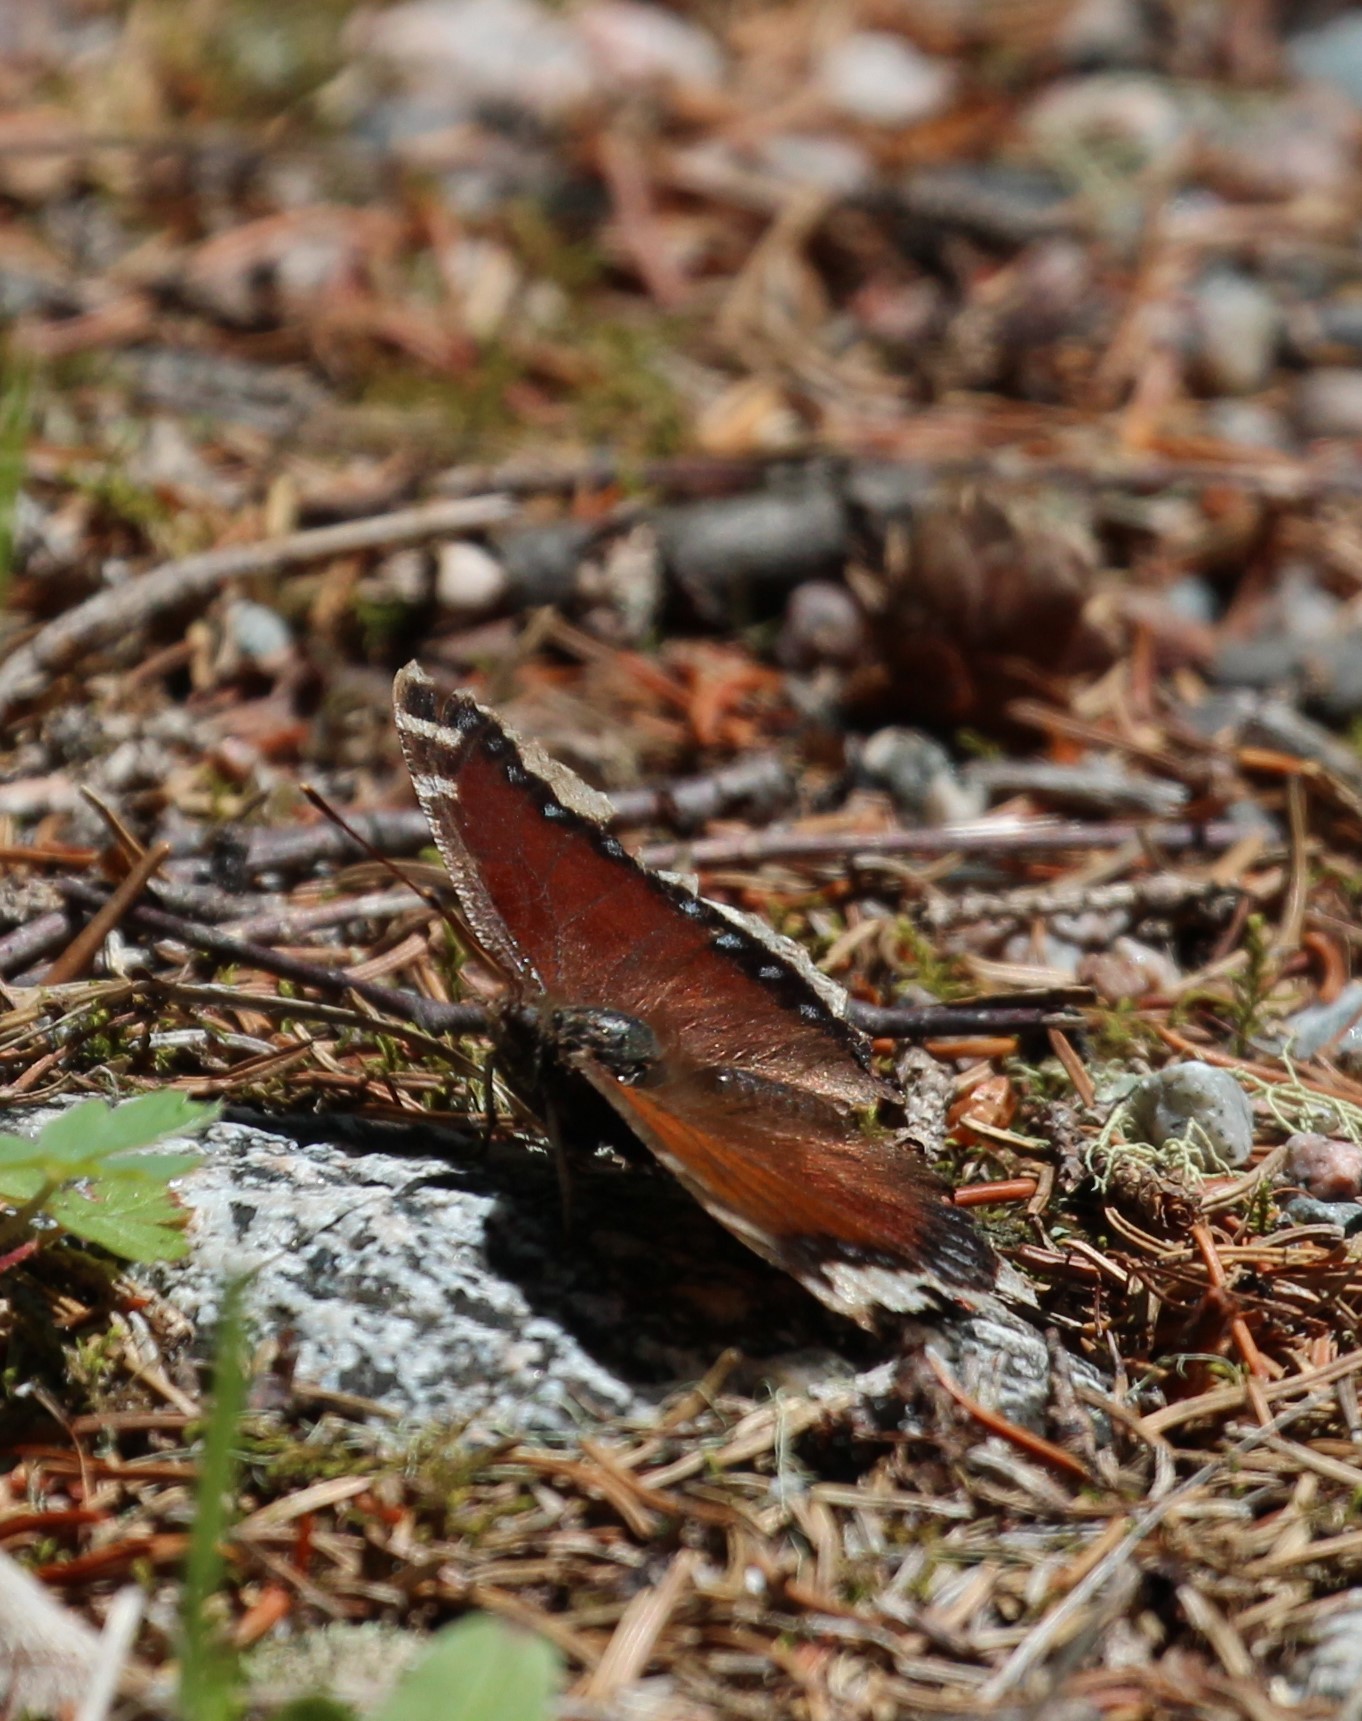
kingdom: Animalia
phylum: Arthropoda
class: Insecta
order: Lepidoptera
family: Nymphalidae
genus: Nymphalis
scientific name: Nymphalis antiopa
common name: Camberwell beauty
